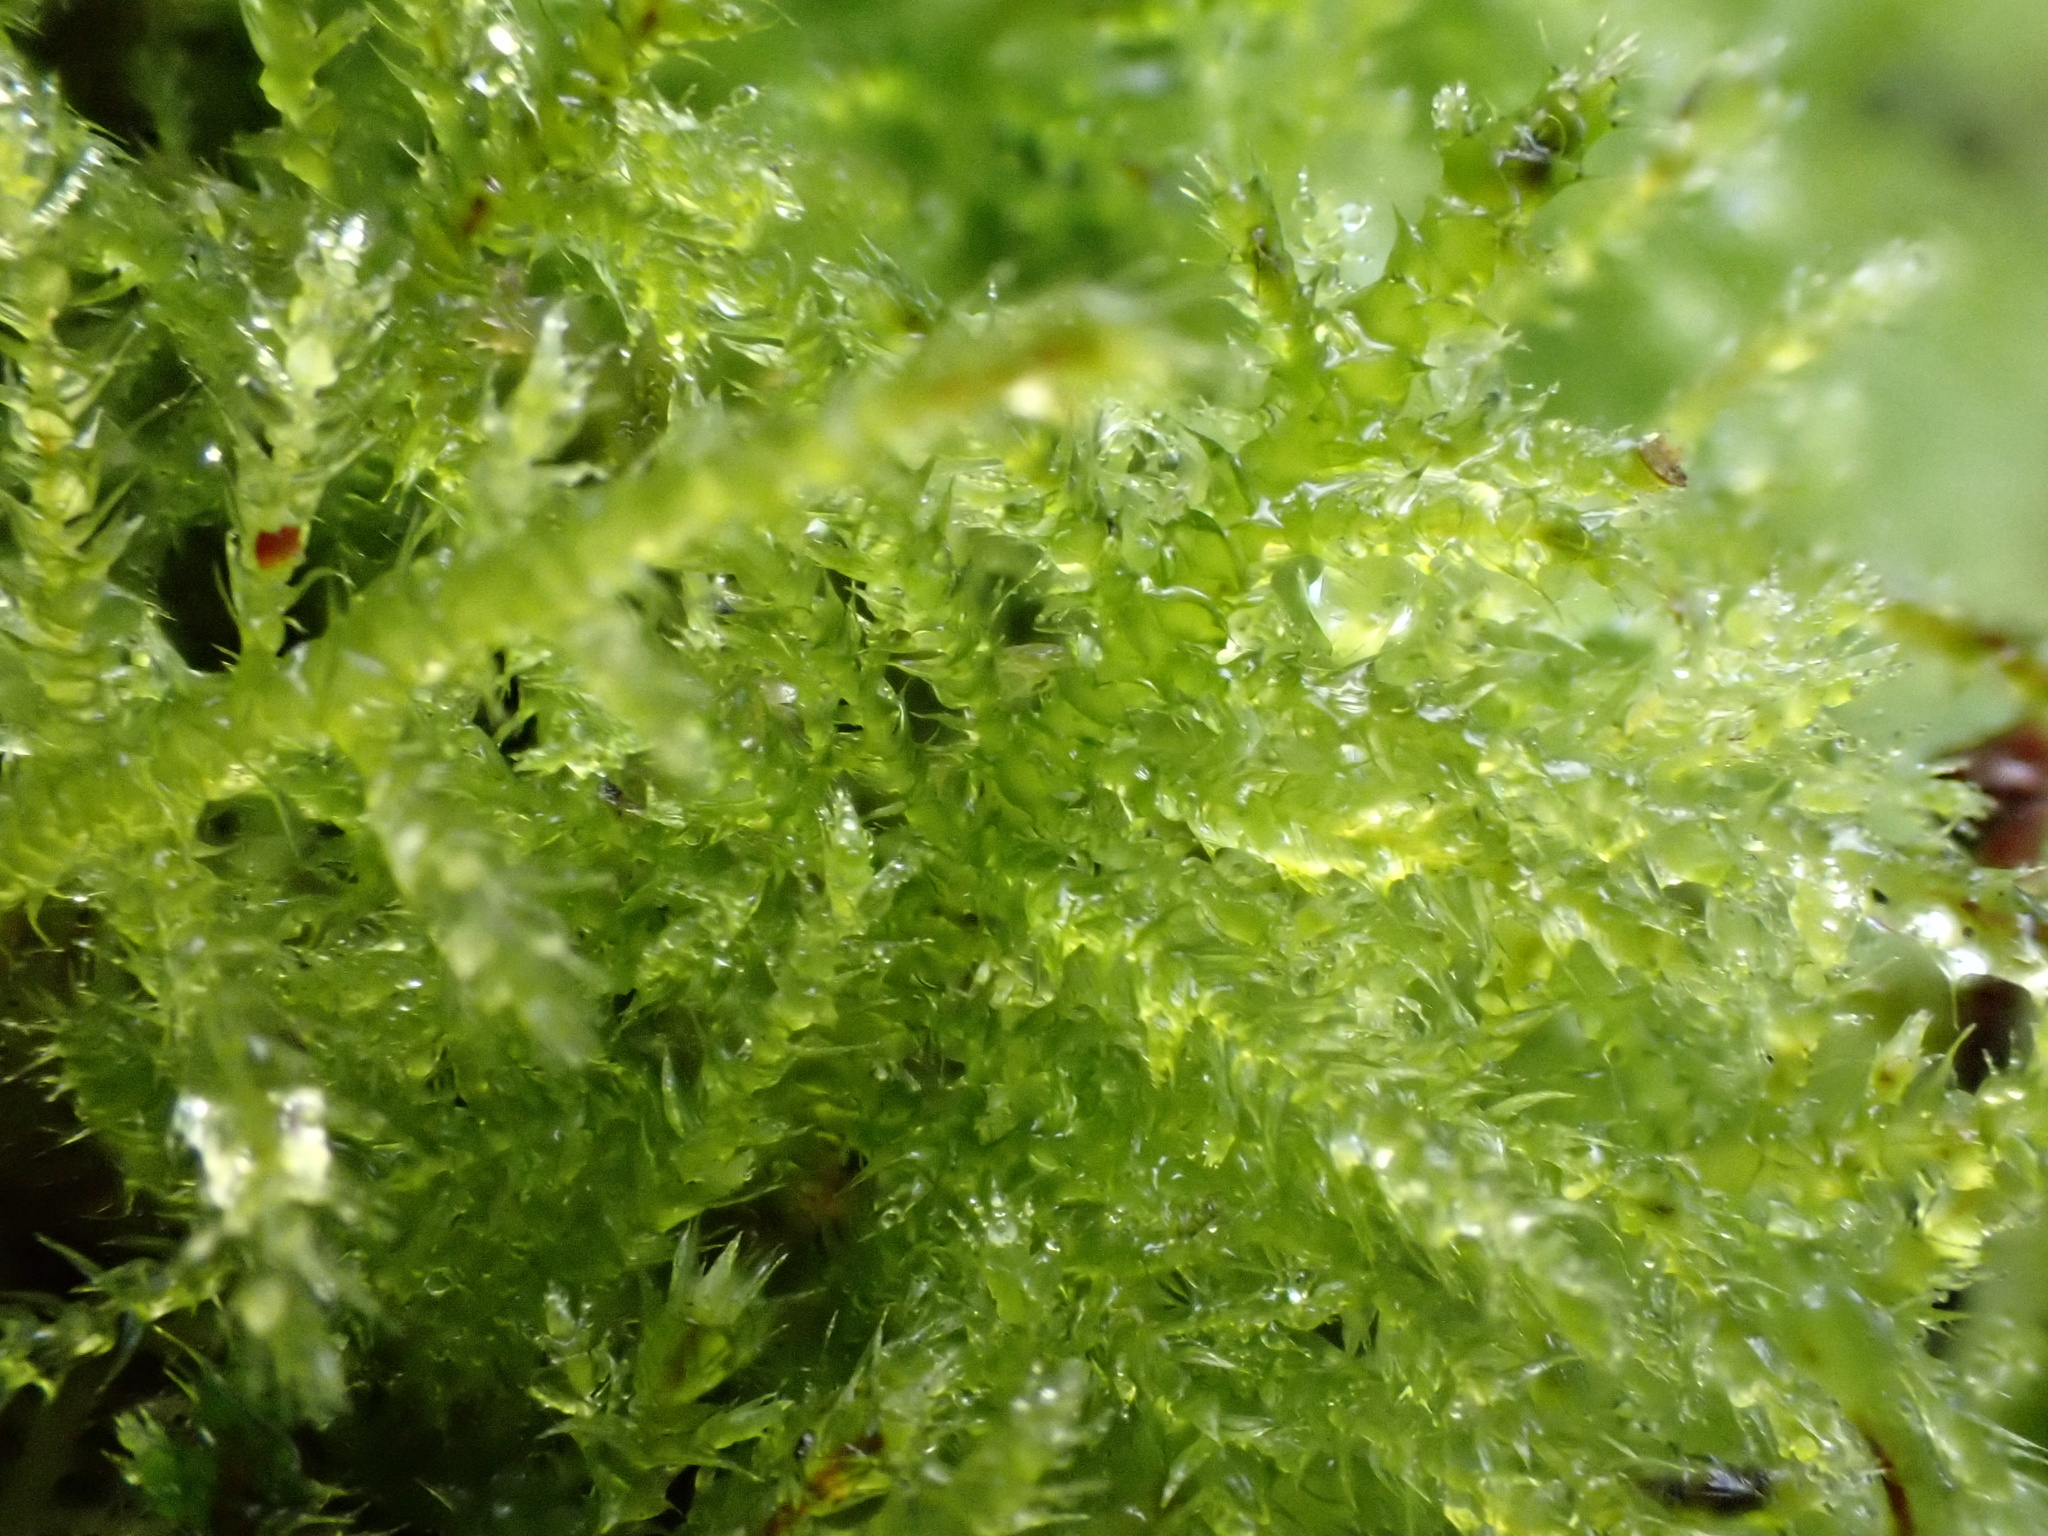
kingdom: Plantae
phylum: Bryophyta
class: Bryopsida
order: Hypnales
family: Brachytheciaceae
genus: Kindbergia
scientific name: Kindbergia praelonga
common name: Slender beaked moss
